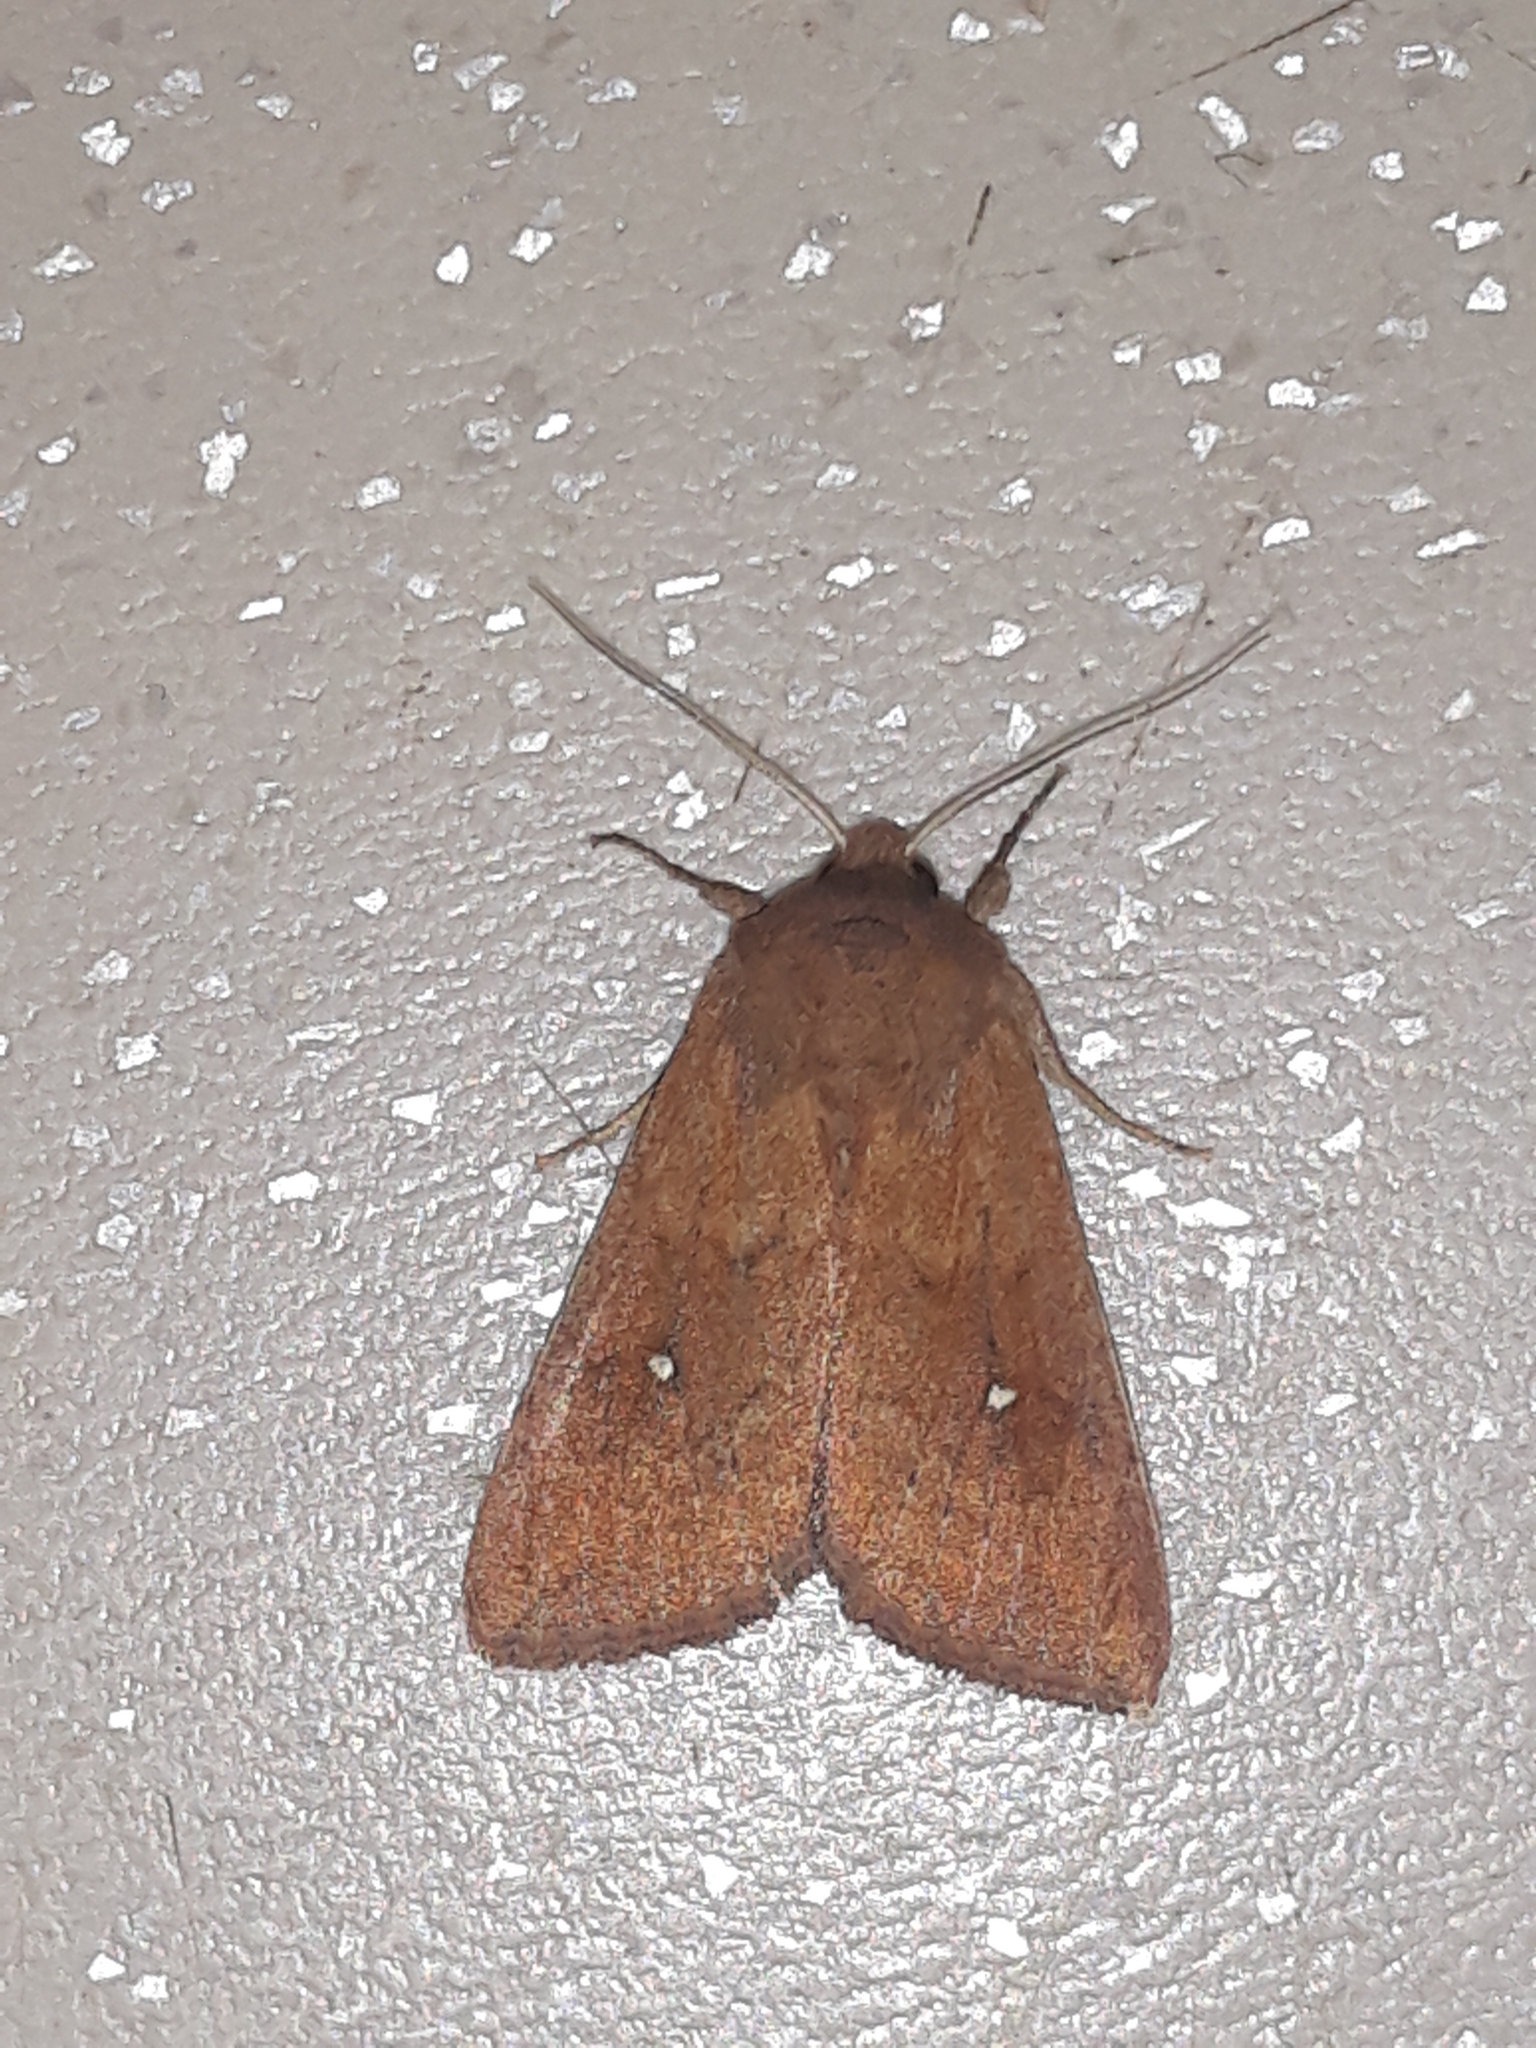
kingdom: Animalia
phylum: Arthropoda
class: Insecta
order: Lepidoptera
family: Noctuidae
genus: Mythimna
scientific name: Mythimna albipuncta
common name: White-point
